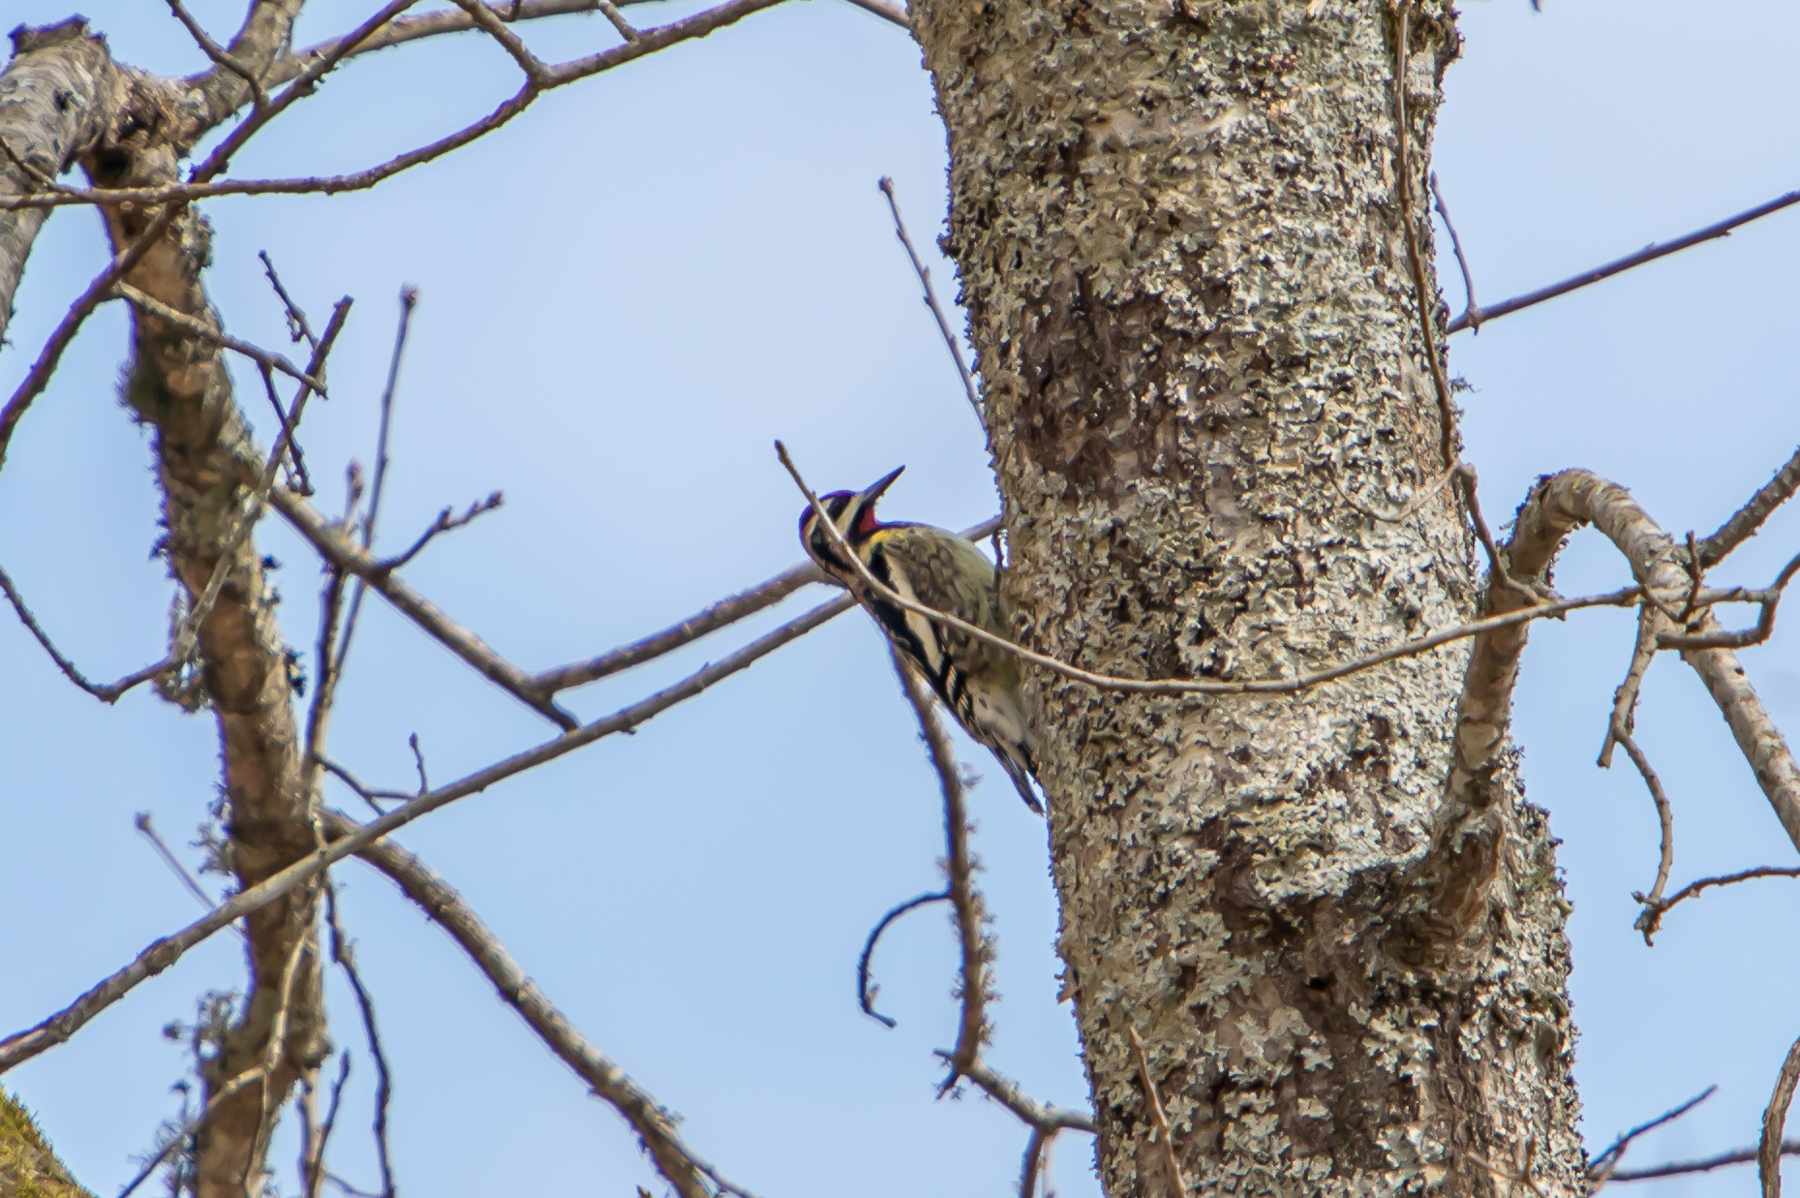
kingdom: Animalia
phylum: Chordata
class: Aves
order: Piciformes
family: Picidae
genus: Sphyrapicus
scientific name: Sphyrapicus varius
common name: Yellow-bellied sapsucker
